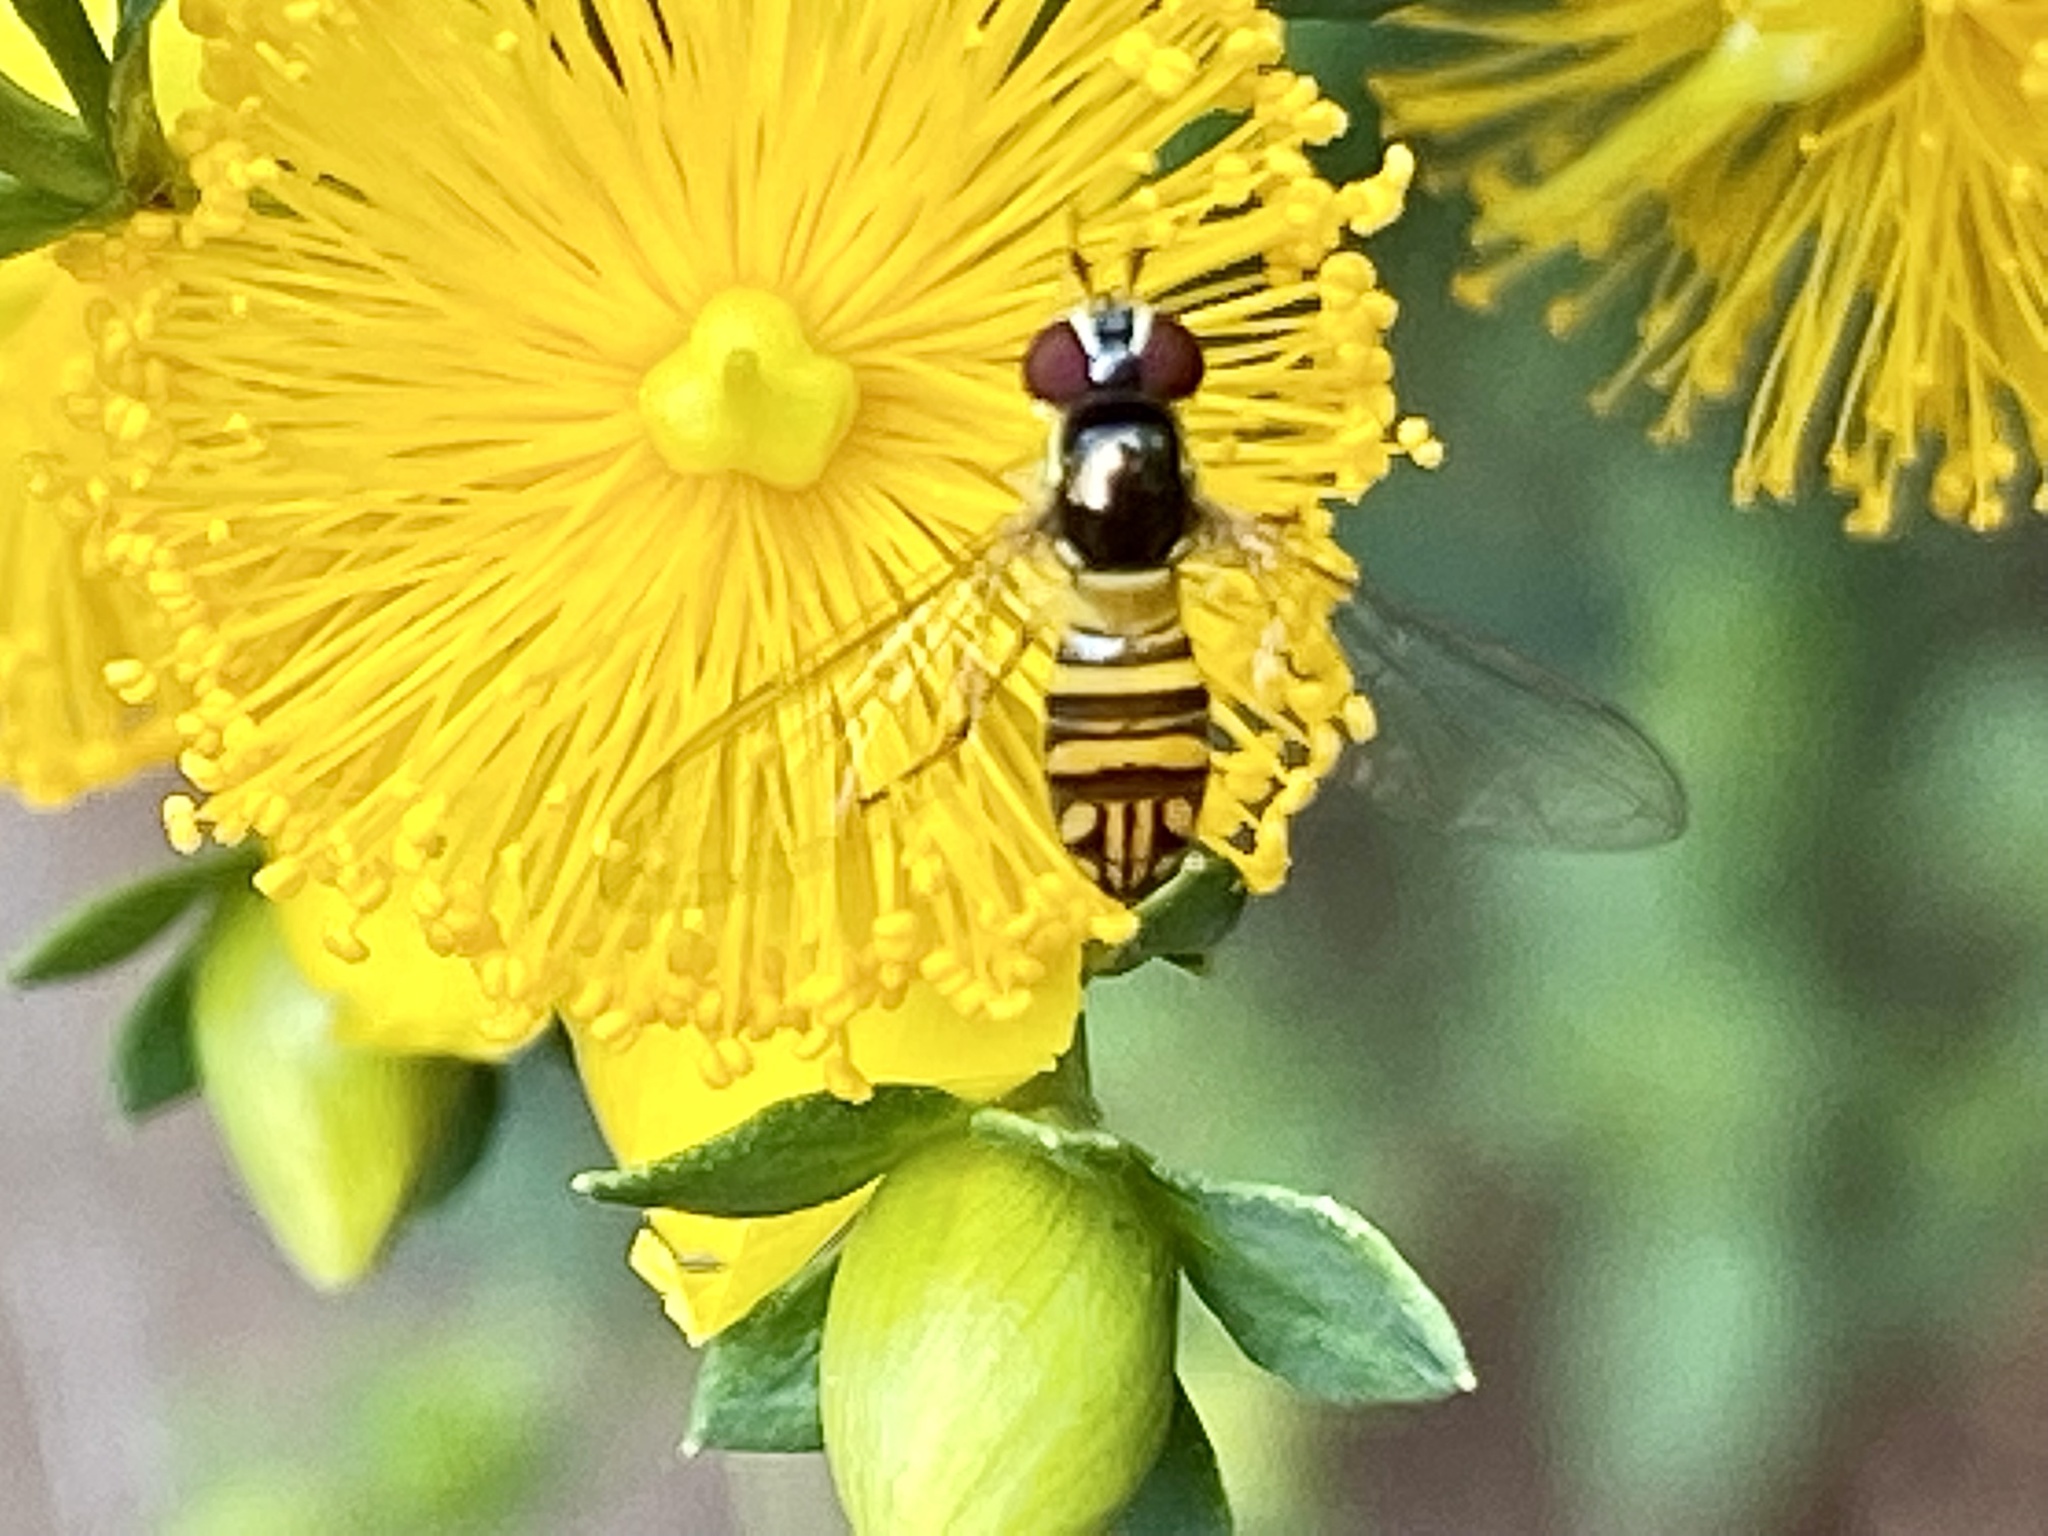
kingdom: Animalia
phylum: Arthropoda
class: Insecta
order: Diptera
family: Syrphidae
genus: Allograpta
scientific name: Allograpta obliqua
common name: Common oblique syrphid
